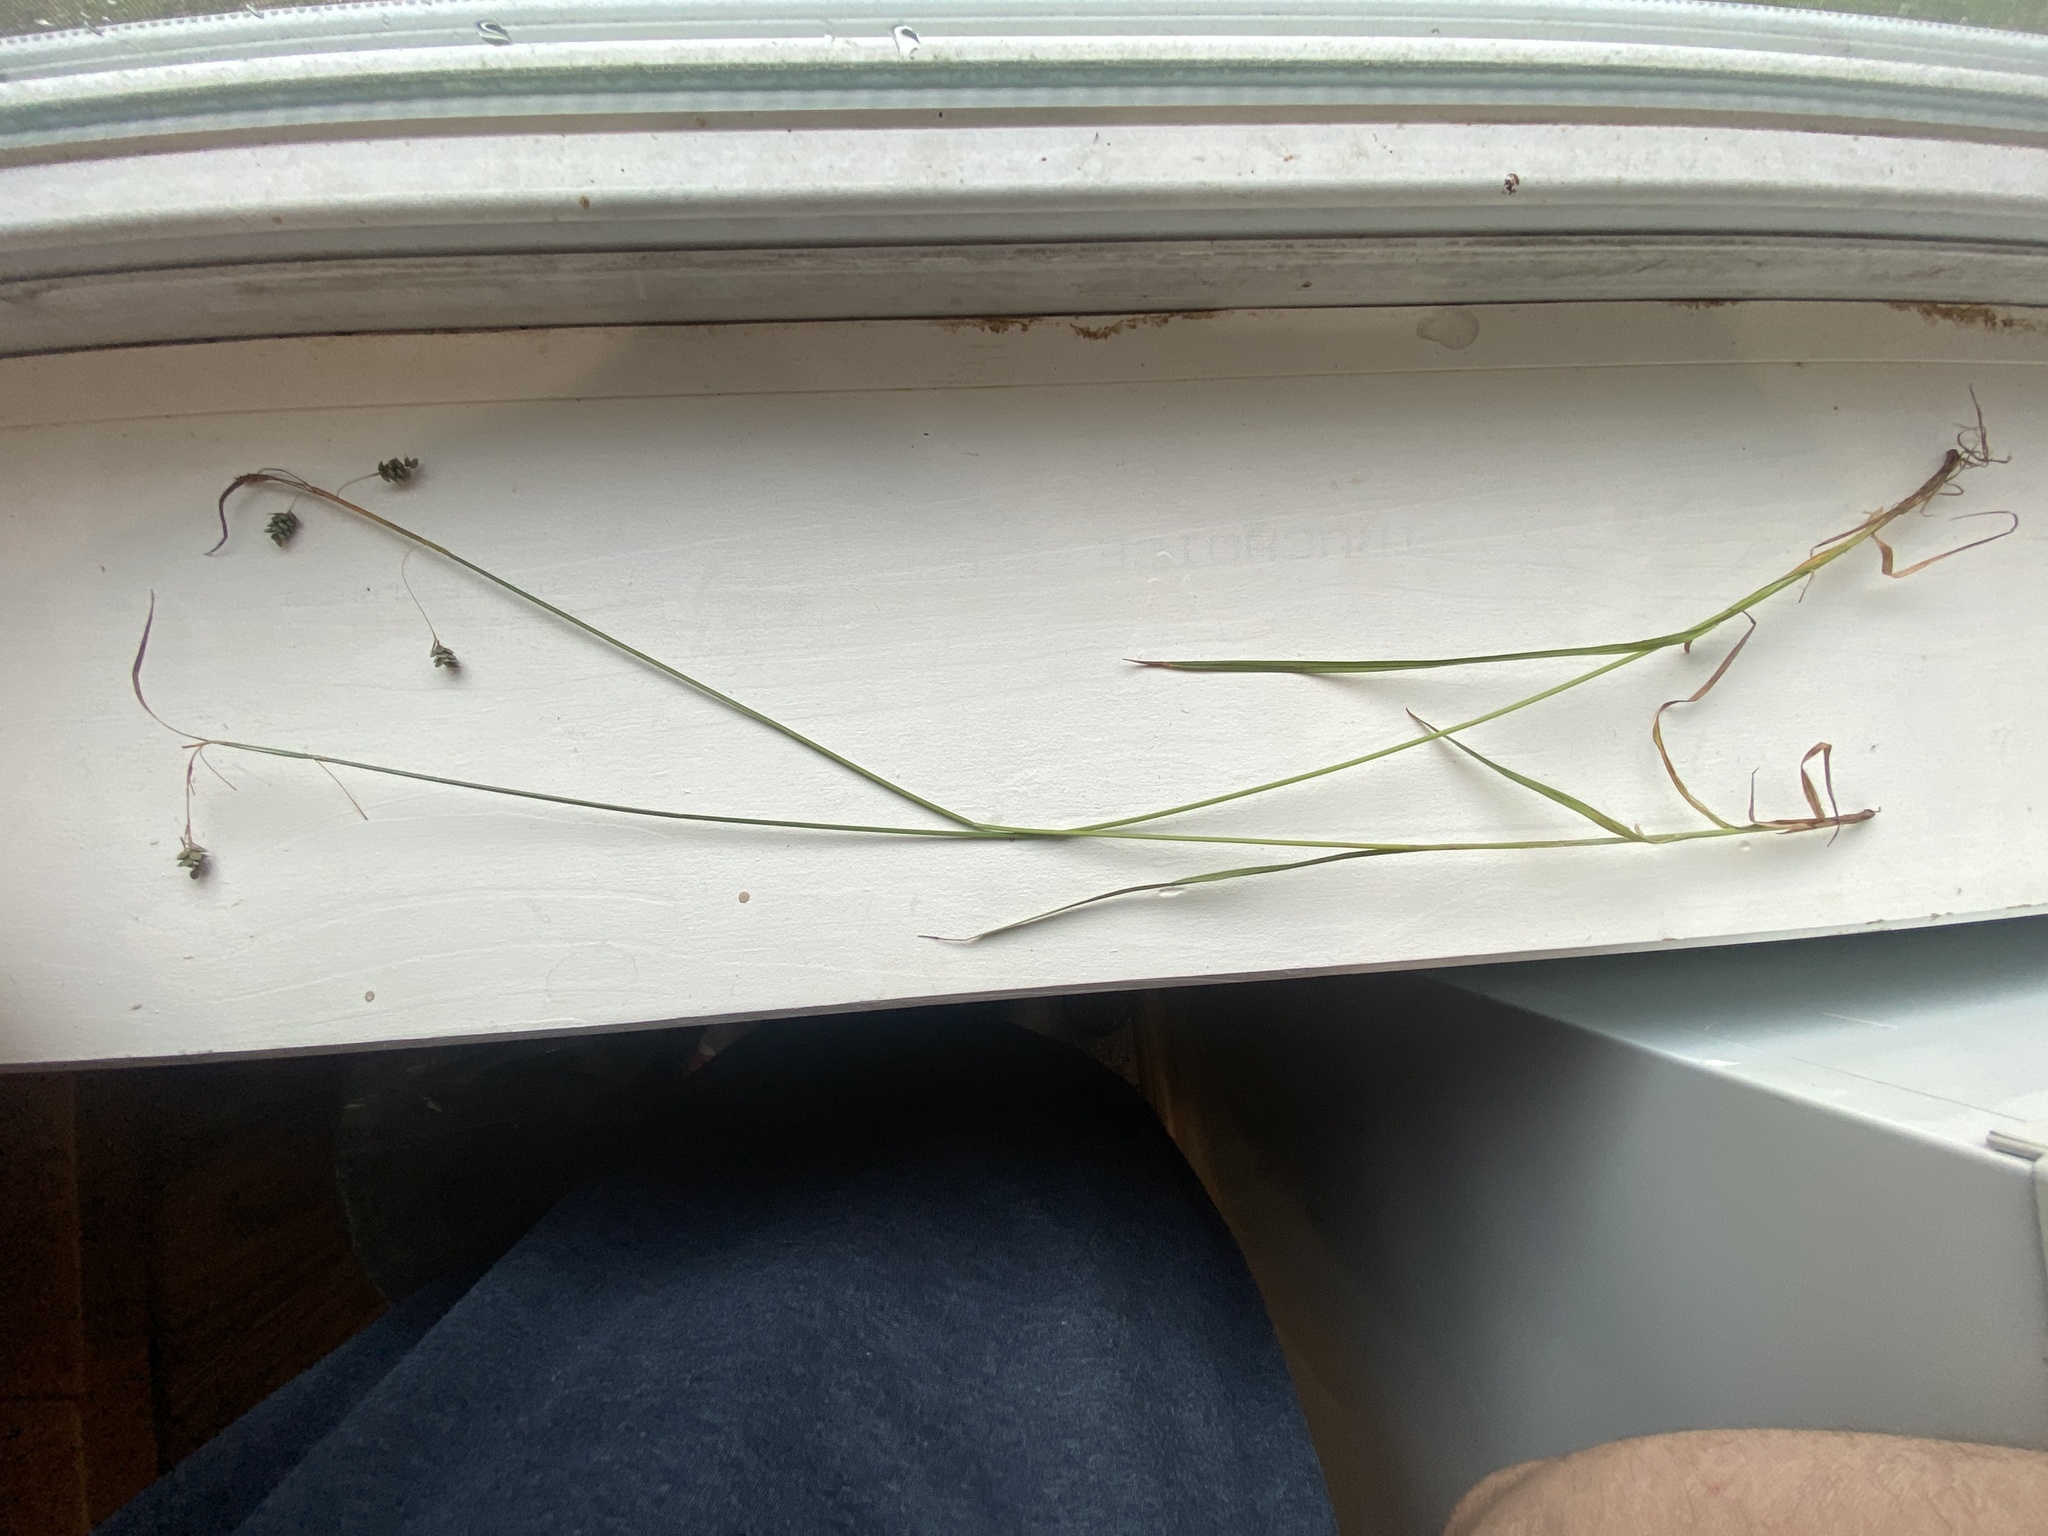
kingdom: Plantae
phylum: Tracheophyta
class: Liliopsida
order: Poales
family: Cyperaceae
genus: Carex
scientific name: Carex magellanica
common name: Bog sedge
